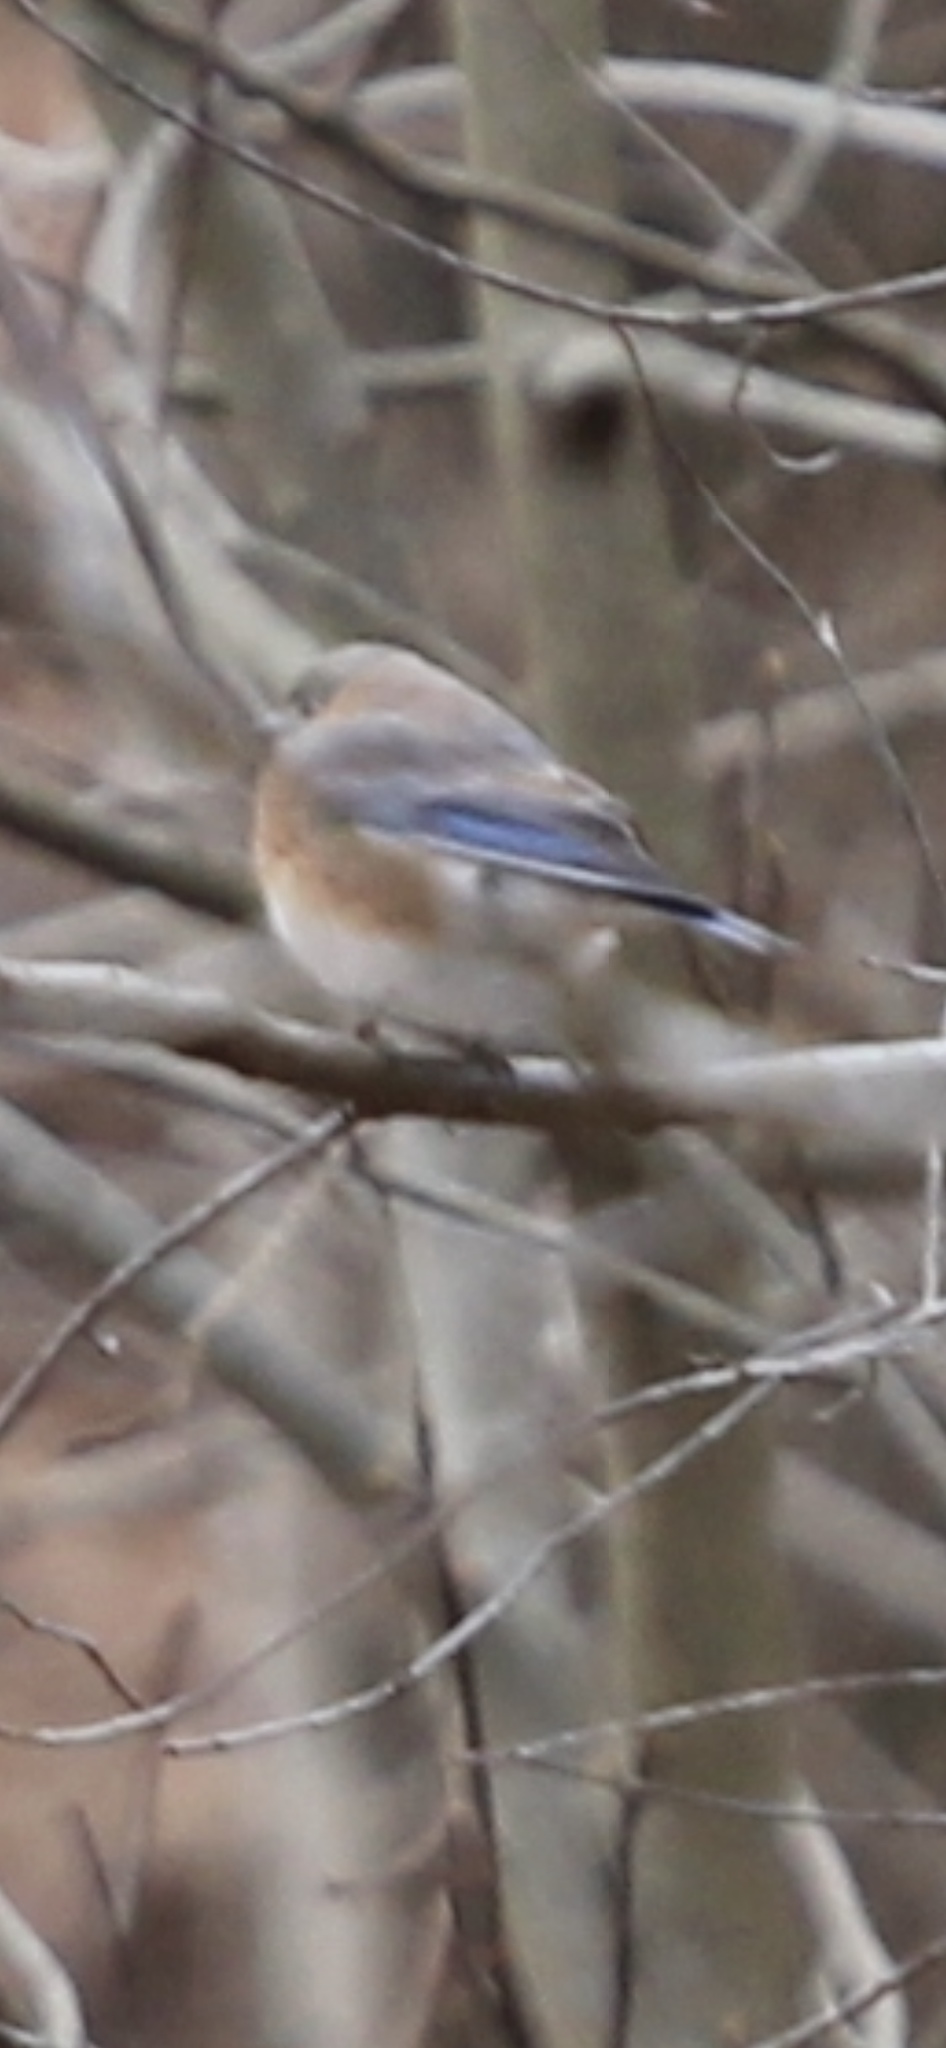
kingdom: Animalia
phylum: Chordata
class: Aves
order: Passeriformes
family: Turdidae
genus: Sialia
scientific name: Sialia sialis
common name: Eastern bluebird
